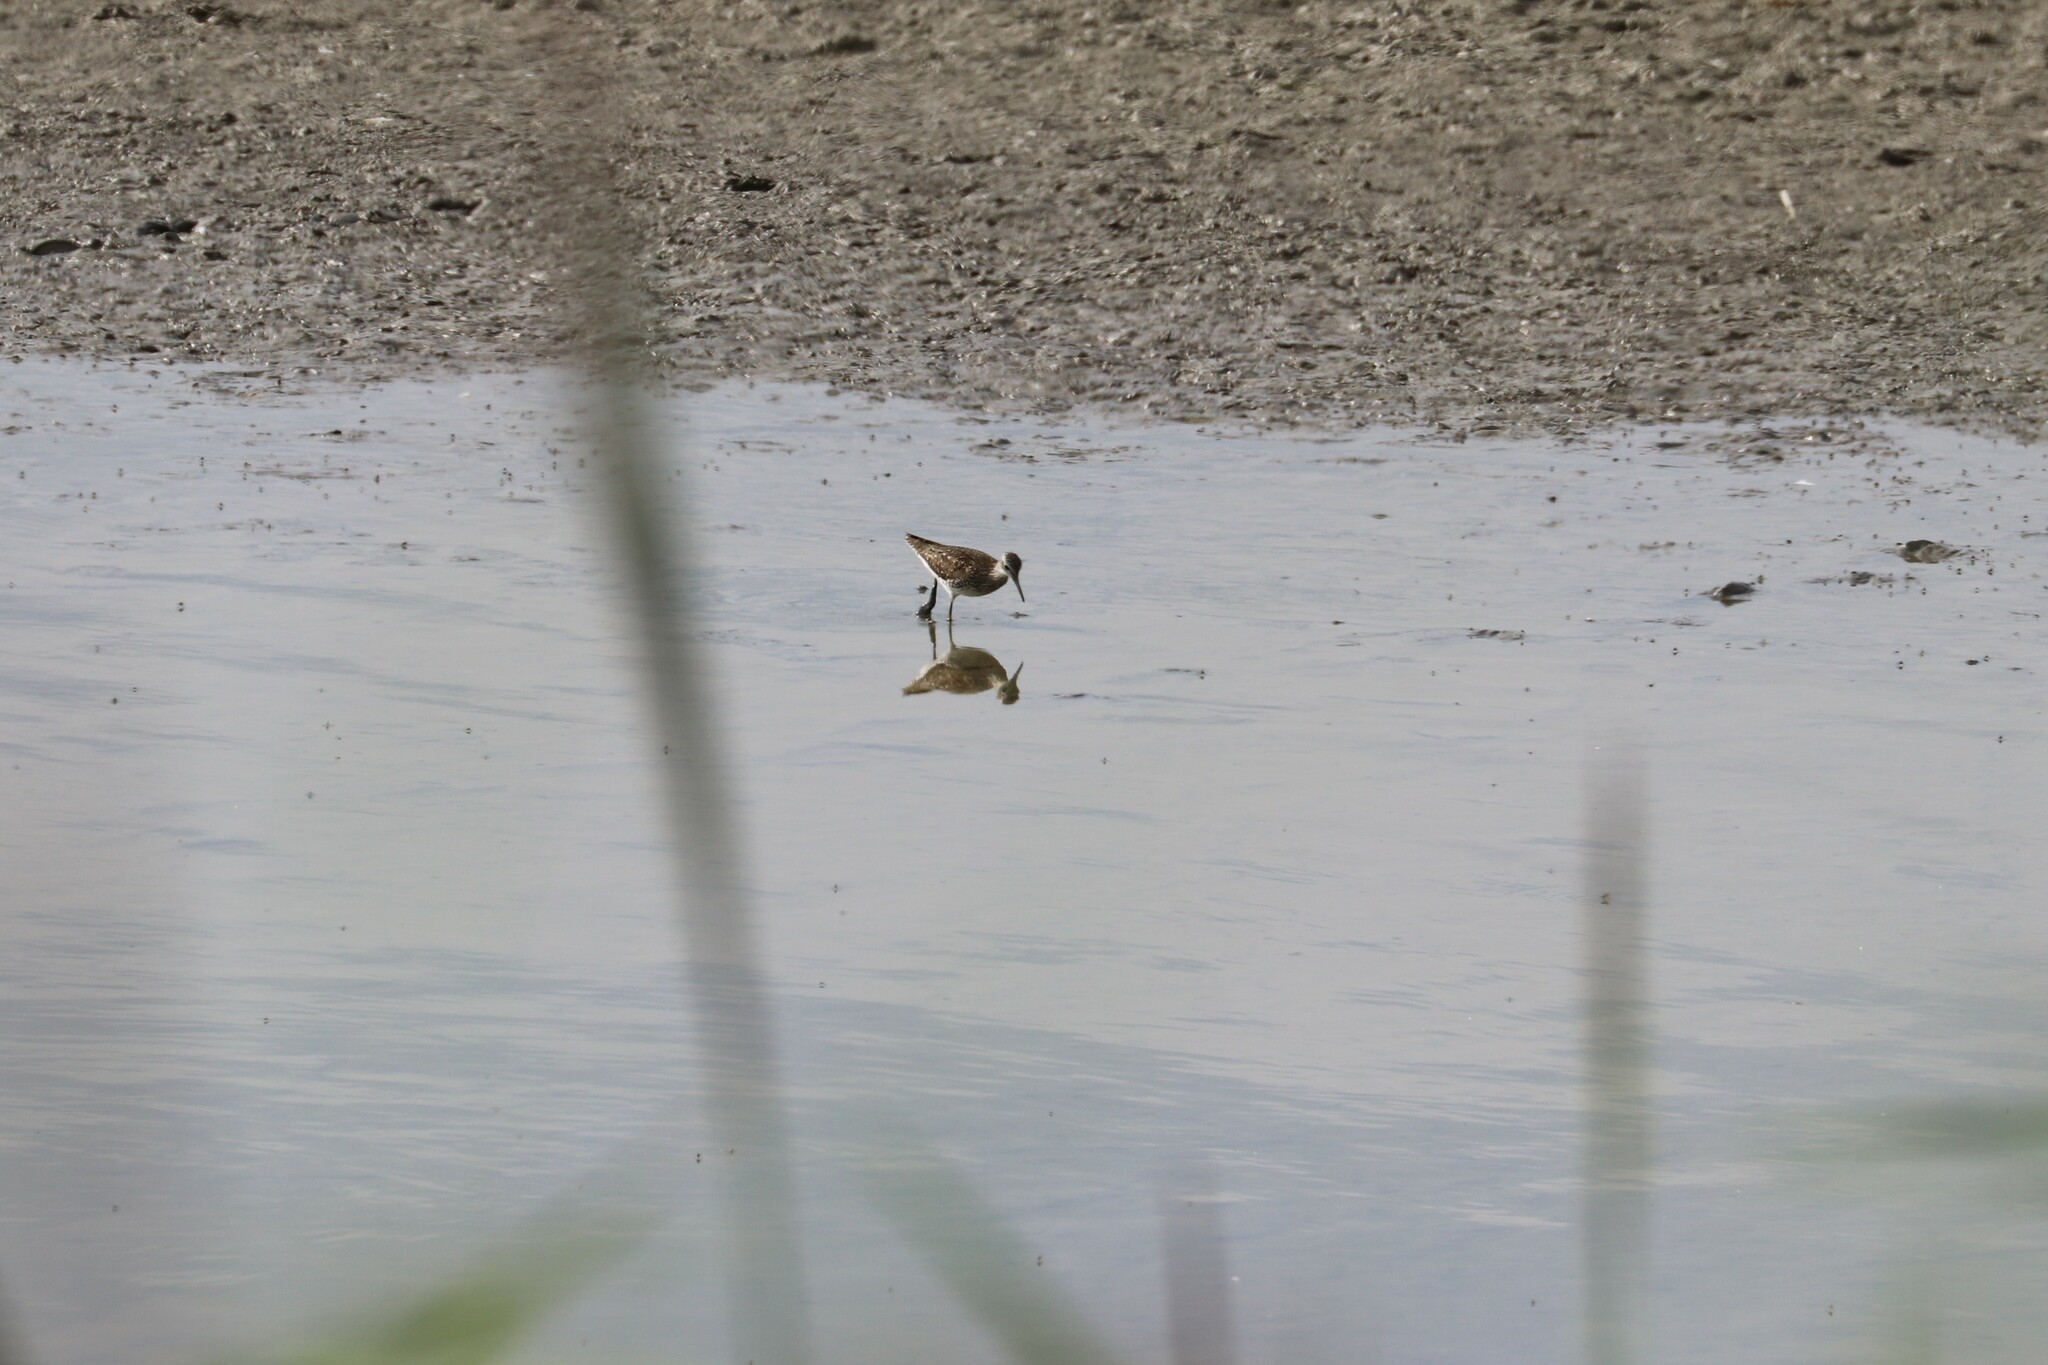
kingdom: Animalia
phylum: Chordata
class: Aves
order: Charadriiformes
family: Scolopacidae
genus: Tringa
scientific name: Tringa glareola
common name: Wood sandpiper
